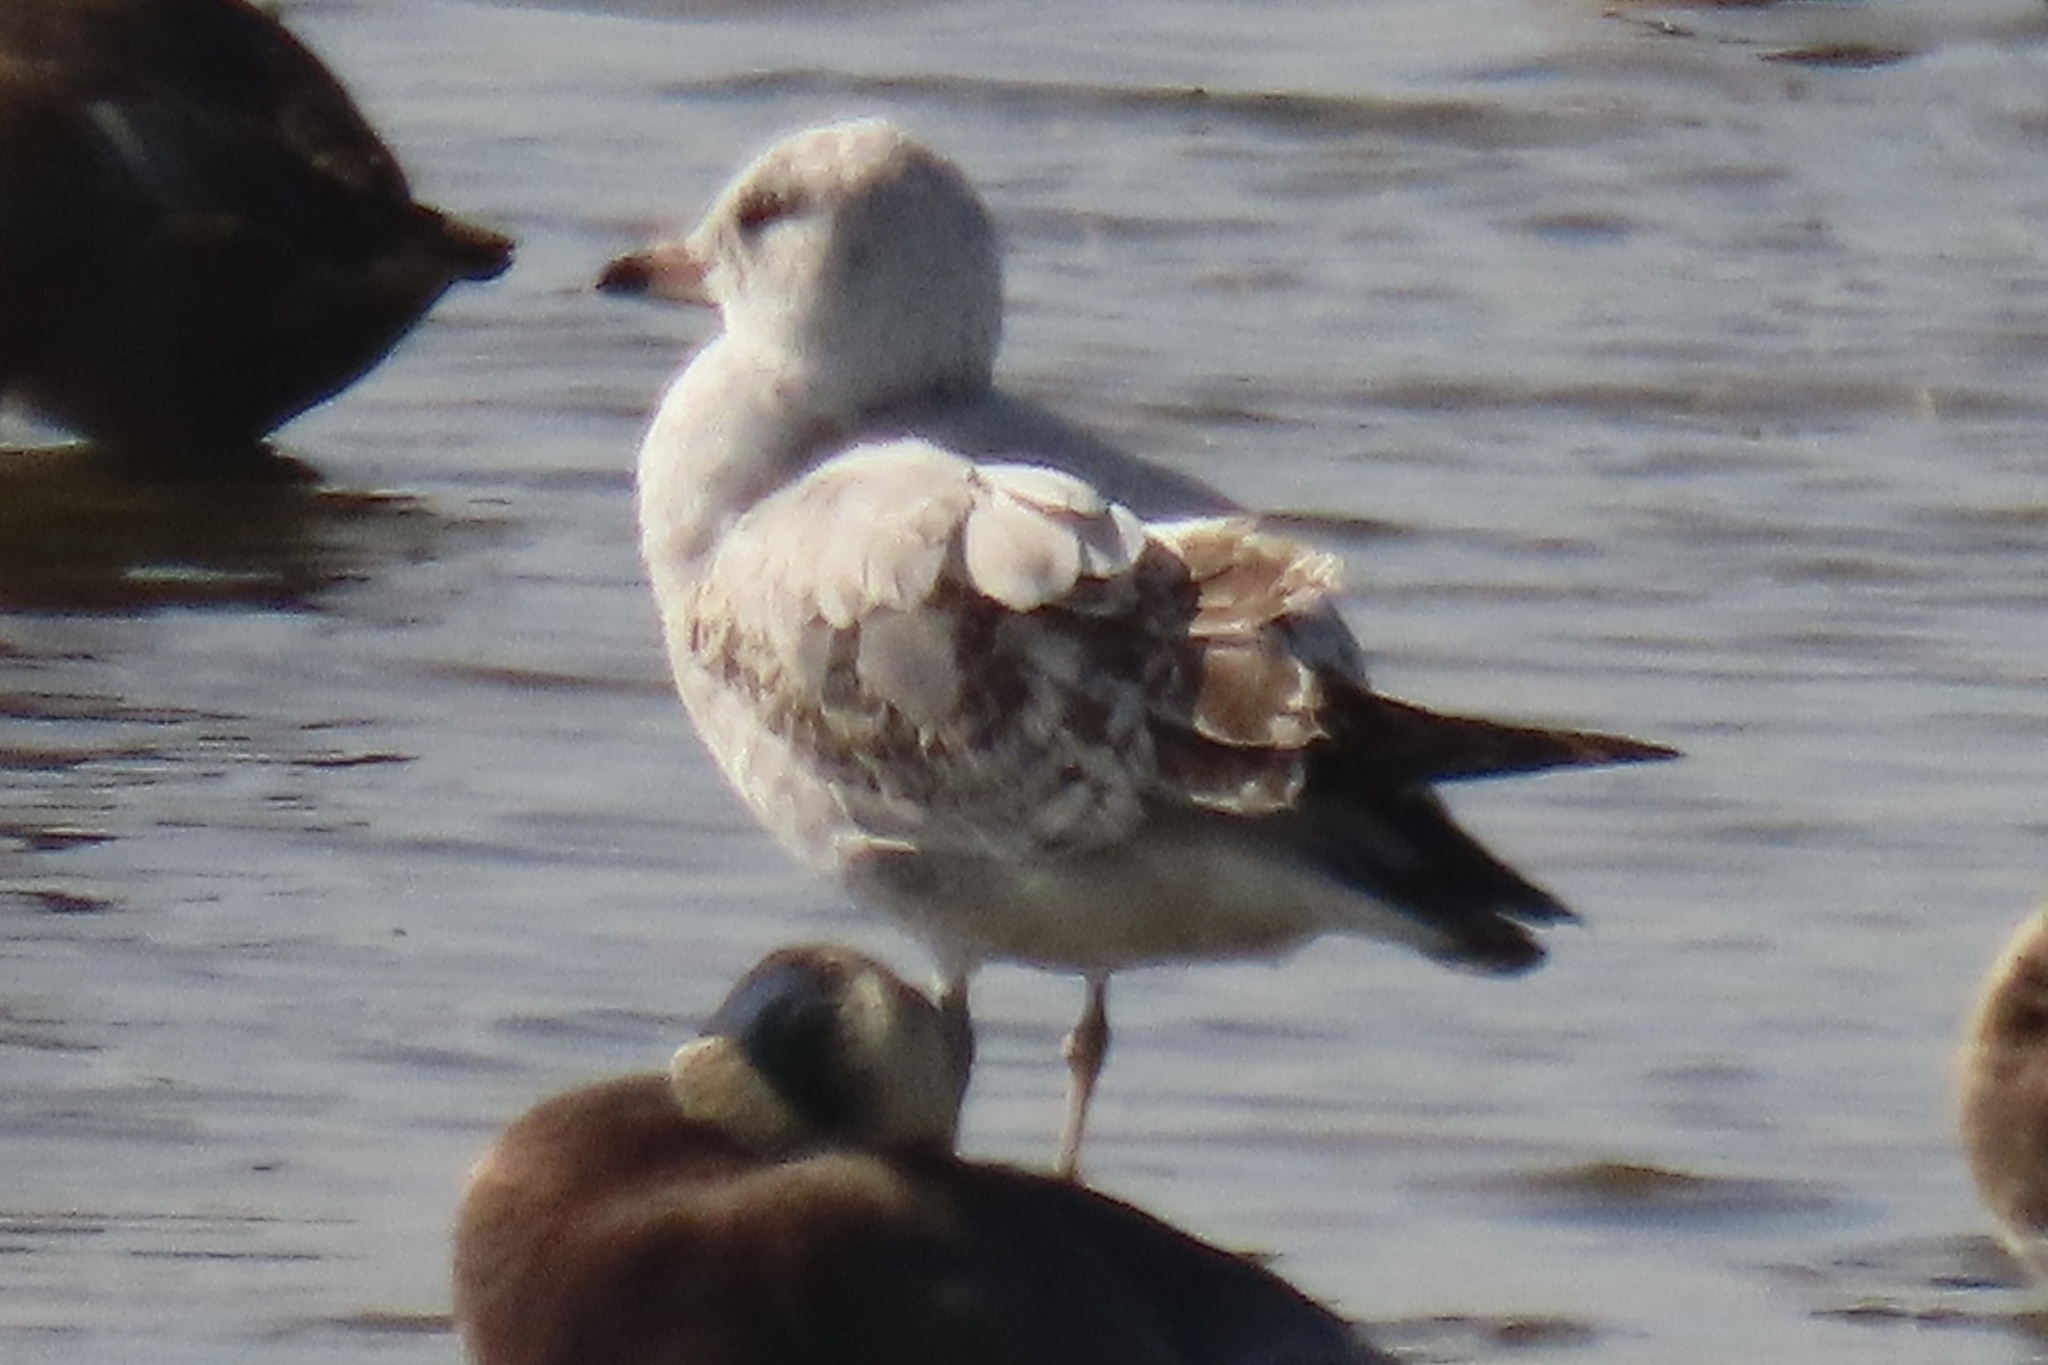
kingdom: Animalia
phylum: Chordata
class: Aves
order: Charadriiformes
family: Laridae
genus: Larus
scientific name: Larus delawarensis
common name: Ring-billed gull
